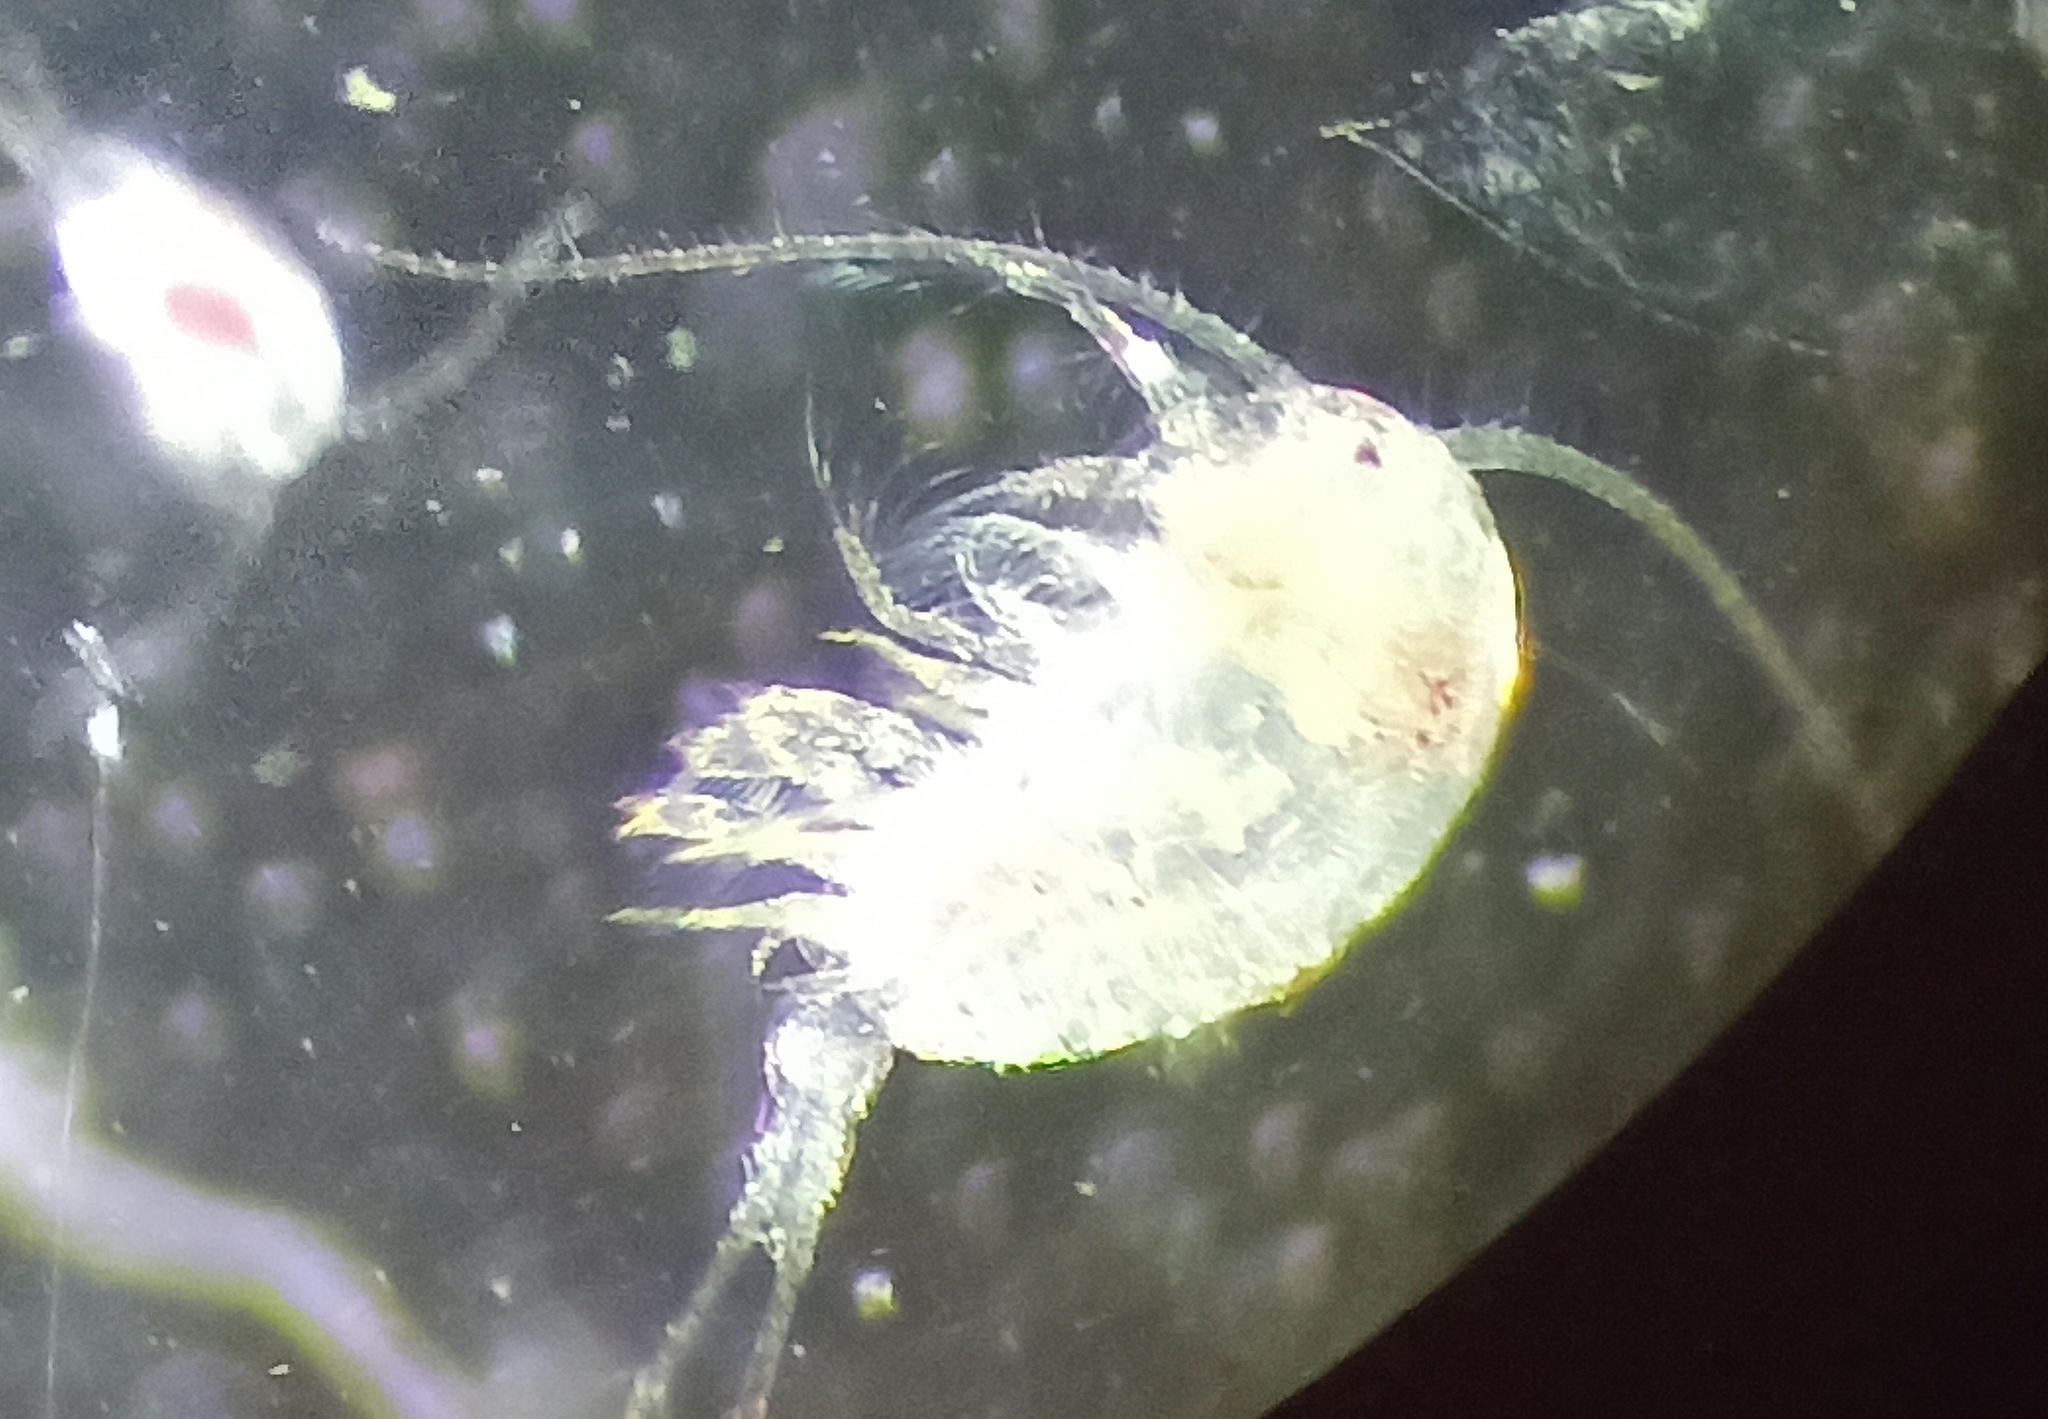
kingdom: Animalia
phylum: Arthropoda
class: Copepoda
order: Calanoida
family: Temoridae
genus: Temora
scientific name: Temora turbinata
